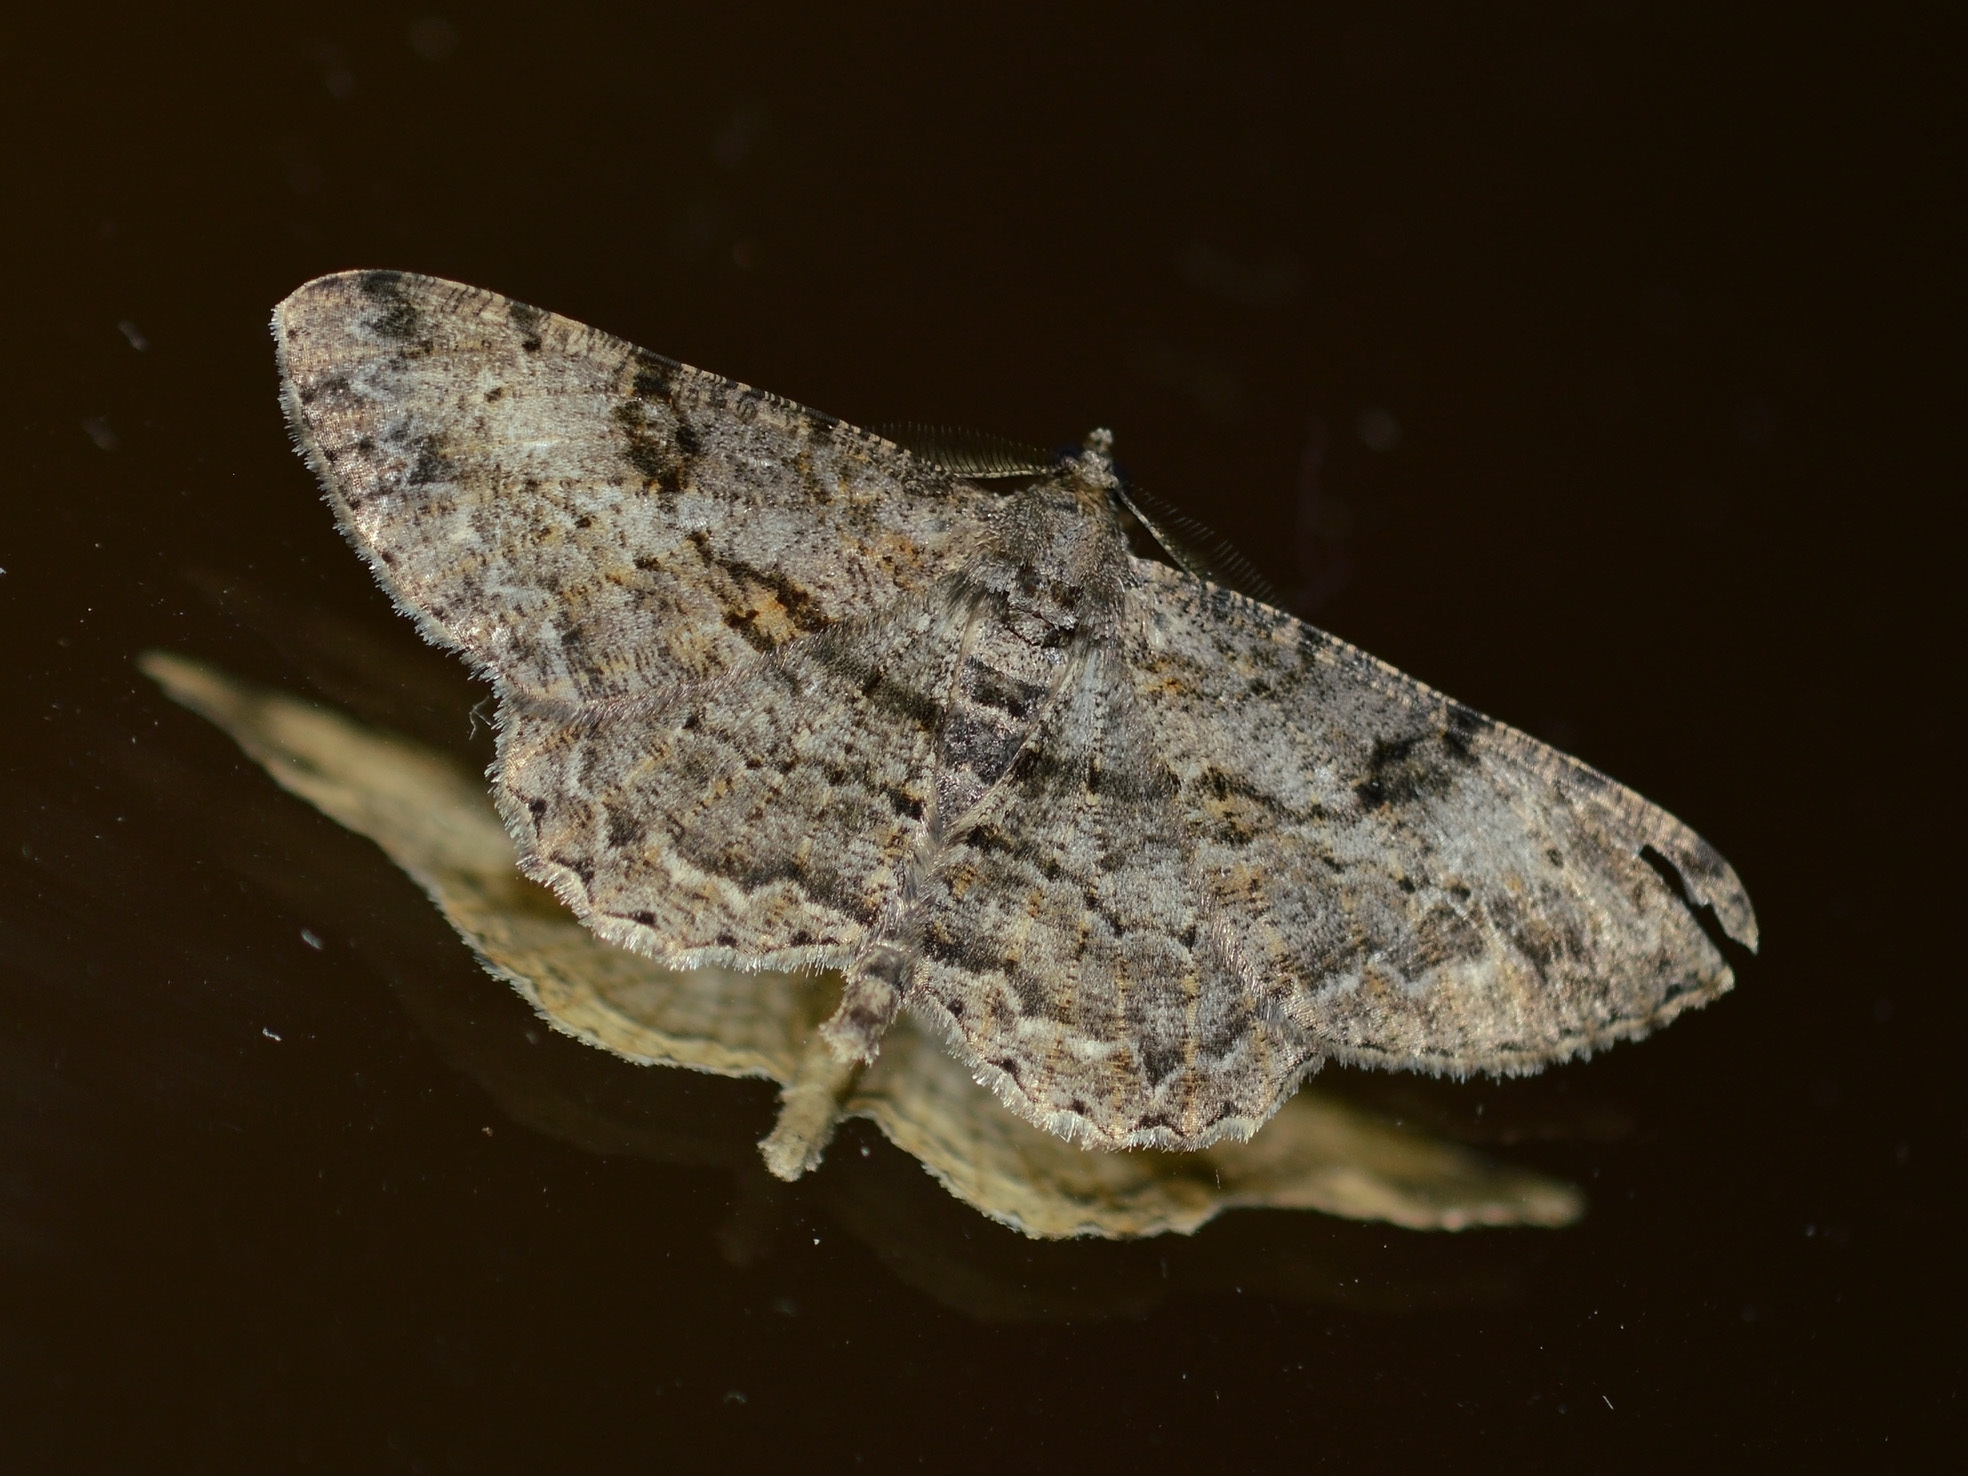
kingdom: Animalia
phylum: Arthropoda
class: Insecta
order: Lepidoptera
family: Geometridae
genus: Peribatodes
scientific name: Peribatodes rhomboidaria
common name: Willow beauty
